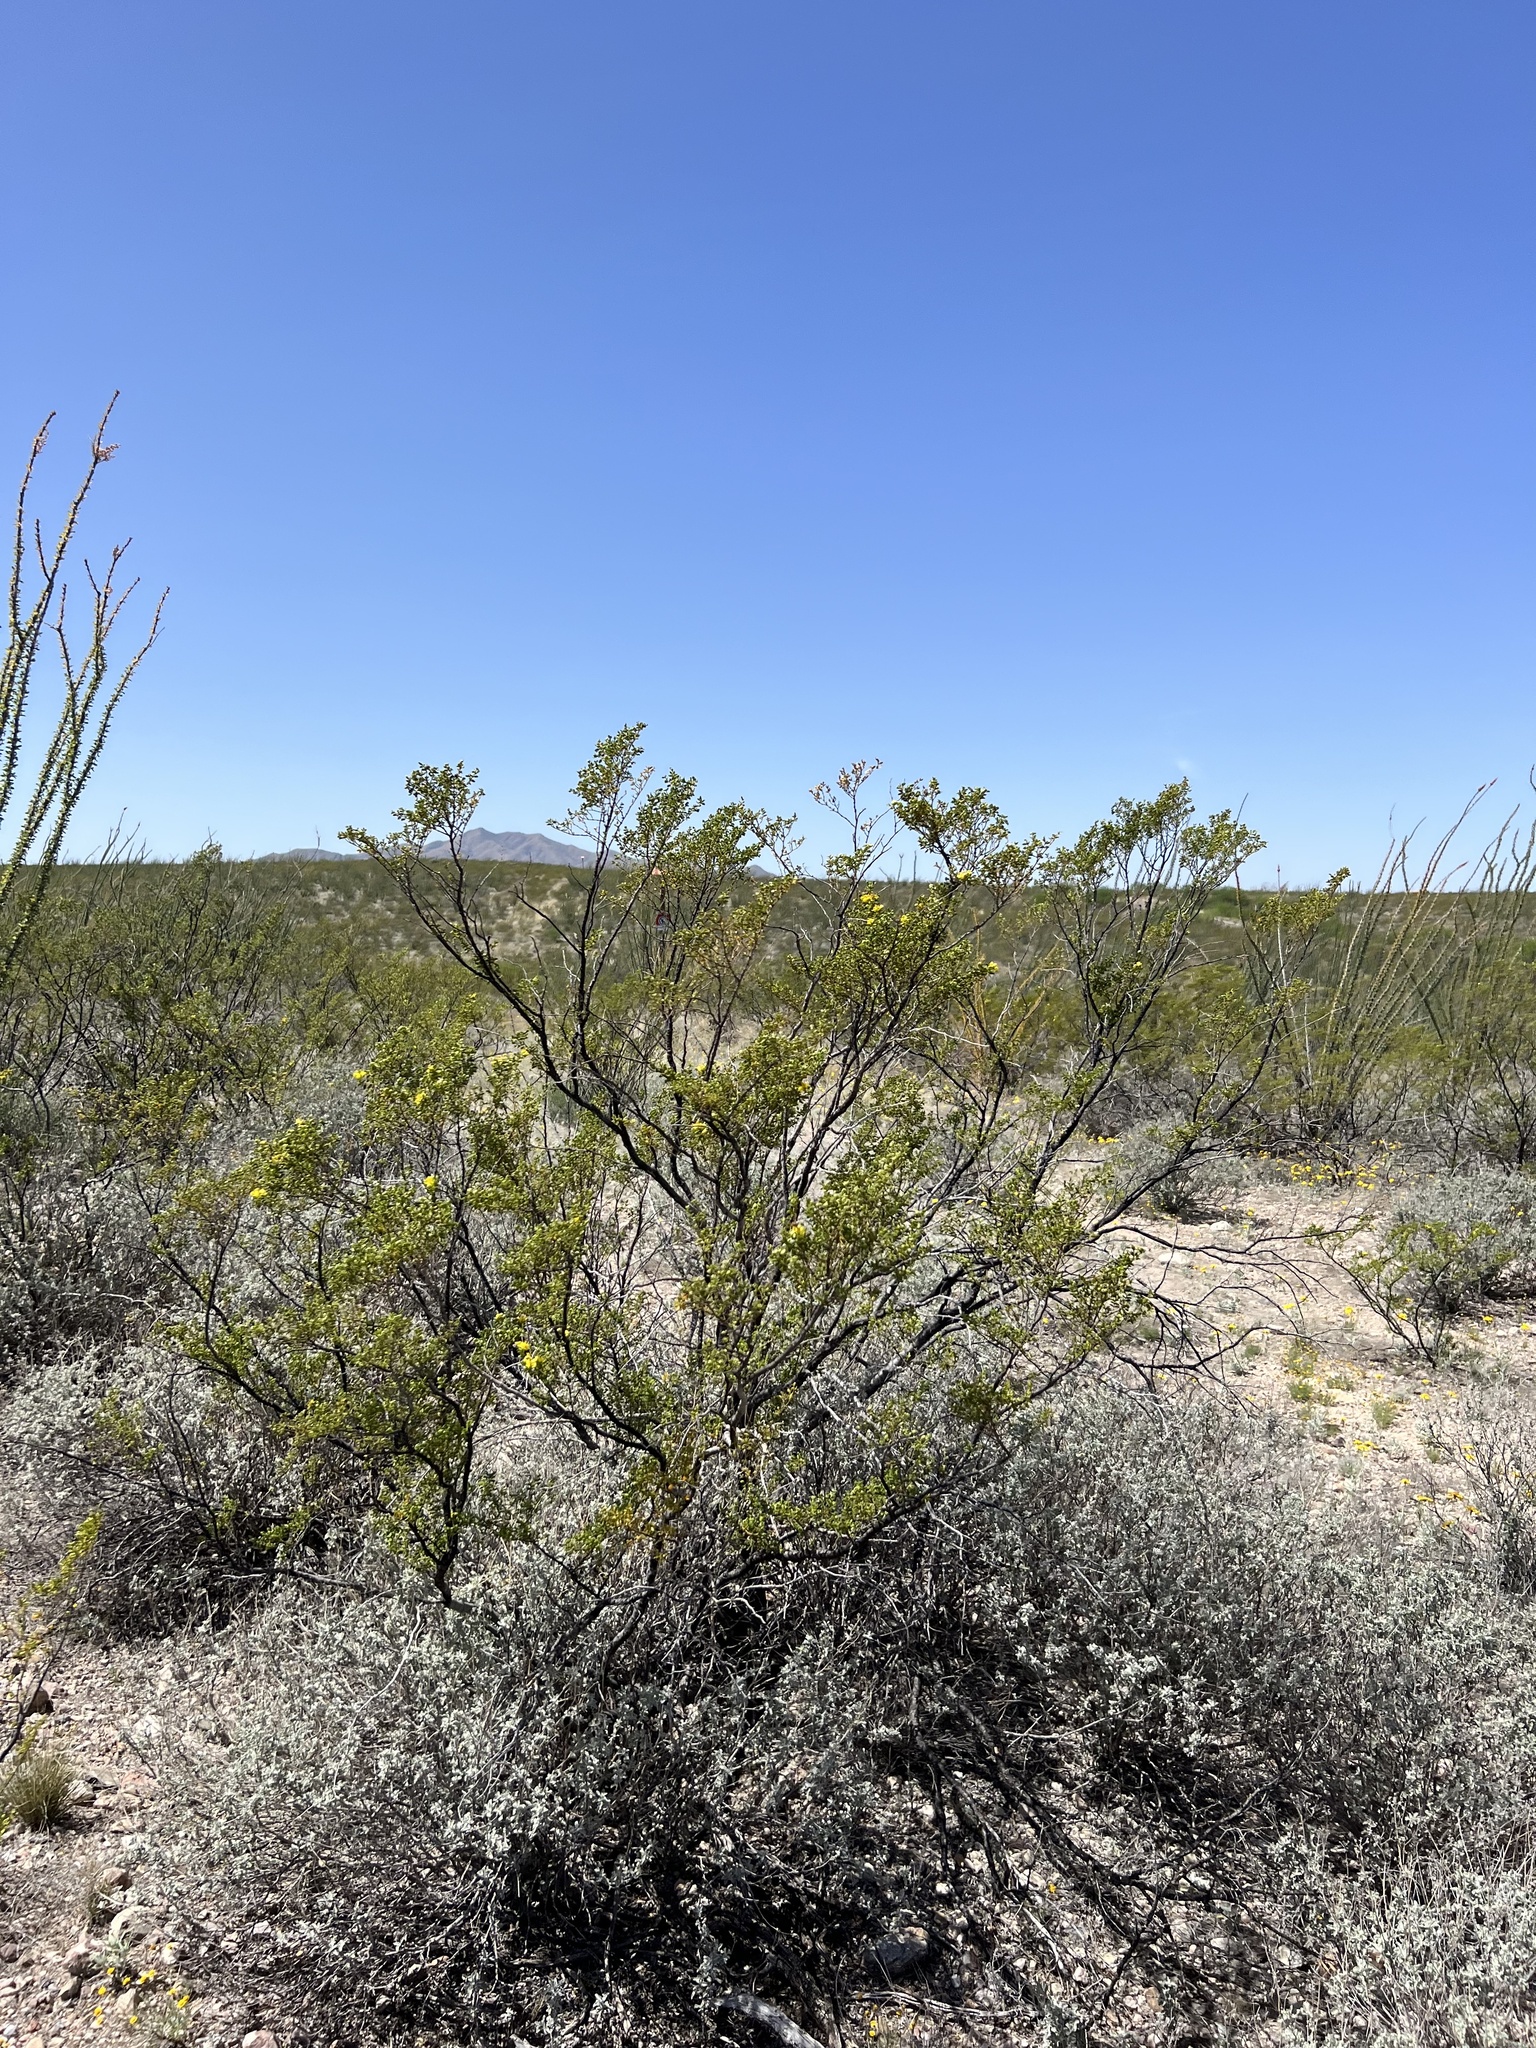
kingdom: Plantae
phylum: Tracheophyta
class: Magnoliopsida
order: Zygophyllales
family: Zygophyllaceae
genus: Larrea
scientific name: Larrea tridentata
